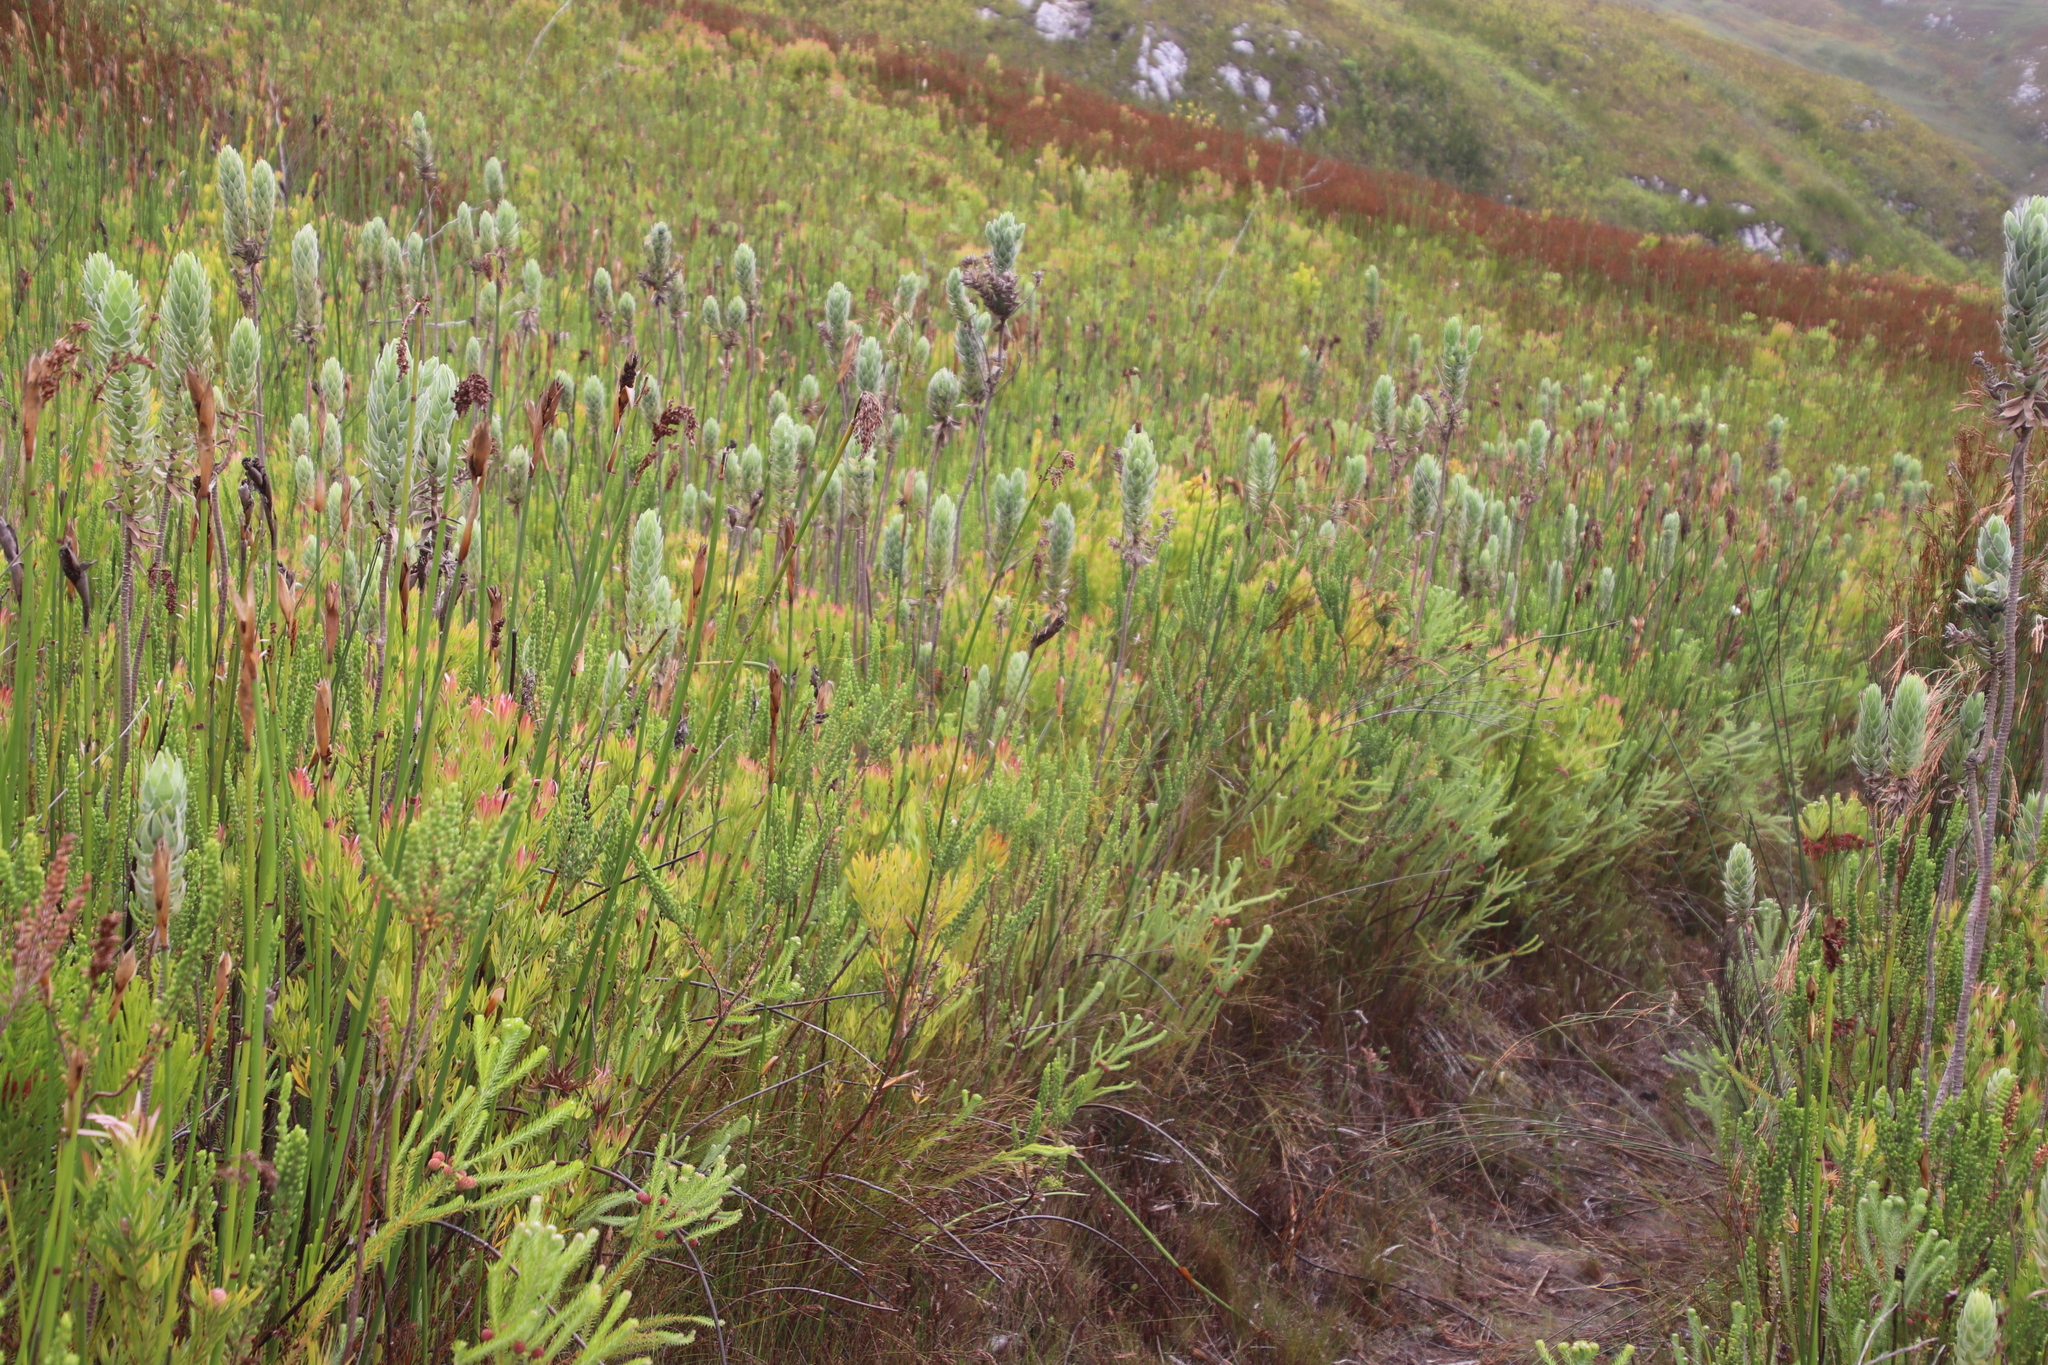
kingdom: Plantae
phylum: Tracheophyta
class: Magnoliopsida
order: Asterales
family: Asteraceae
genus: Osmitopsis
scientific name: Osmitopsis asteriscoides
